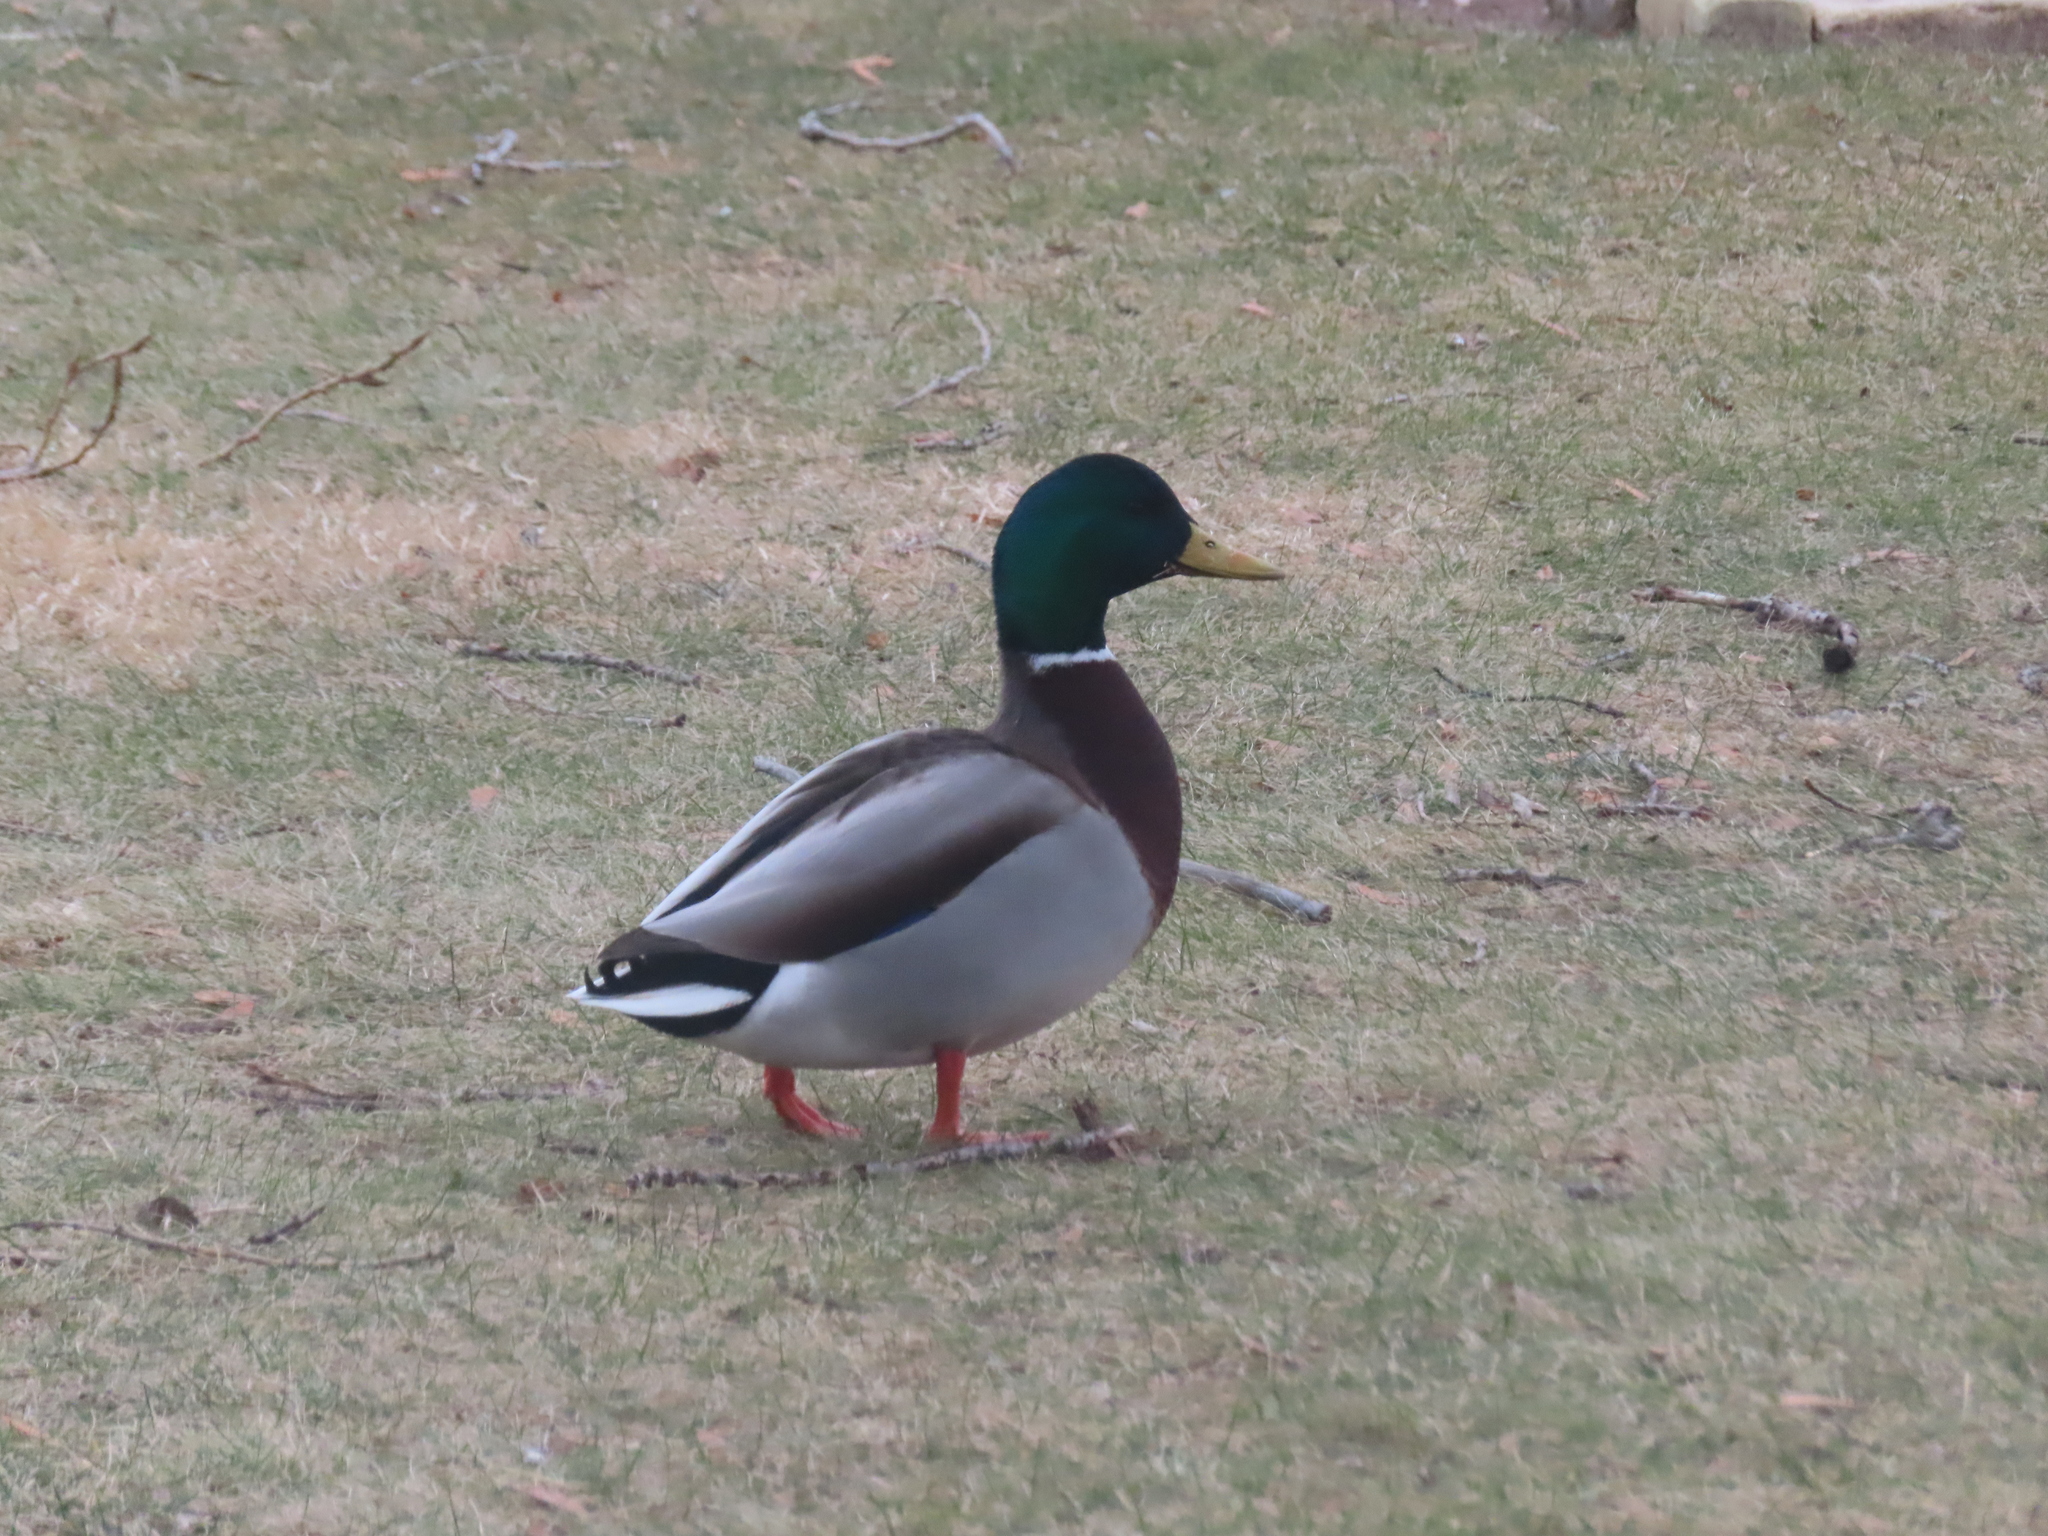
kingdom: Animalia
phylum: Chordata
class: Aves
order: Anseriformes
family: Anatidae
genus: Anas
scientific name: Anas platyrhynchos
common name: Mallard
